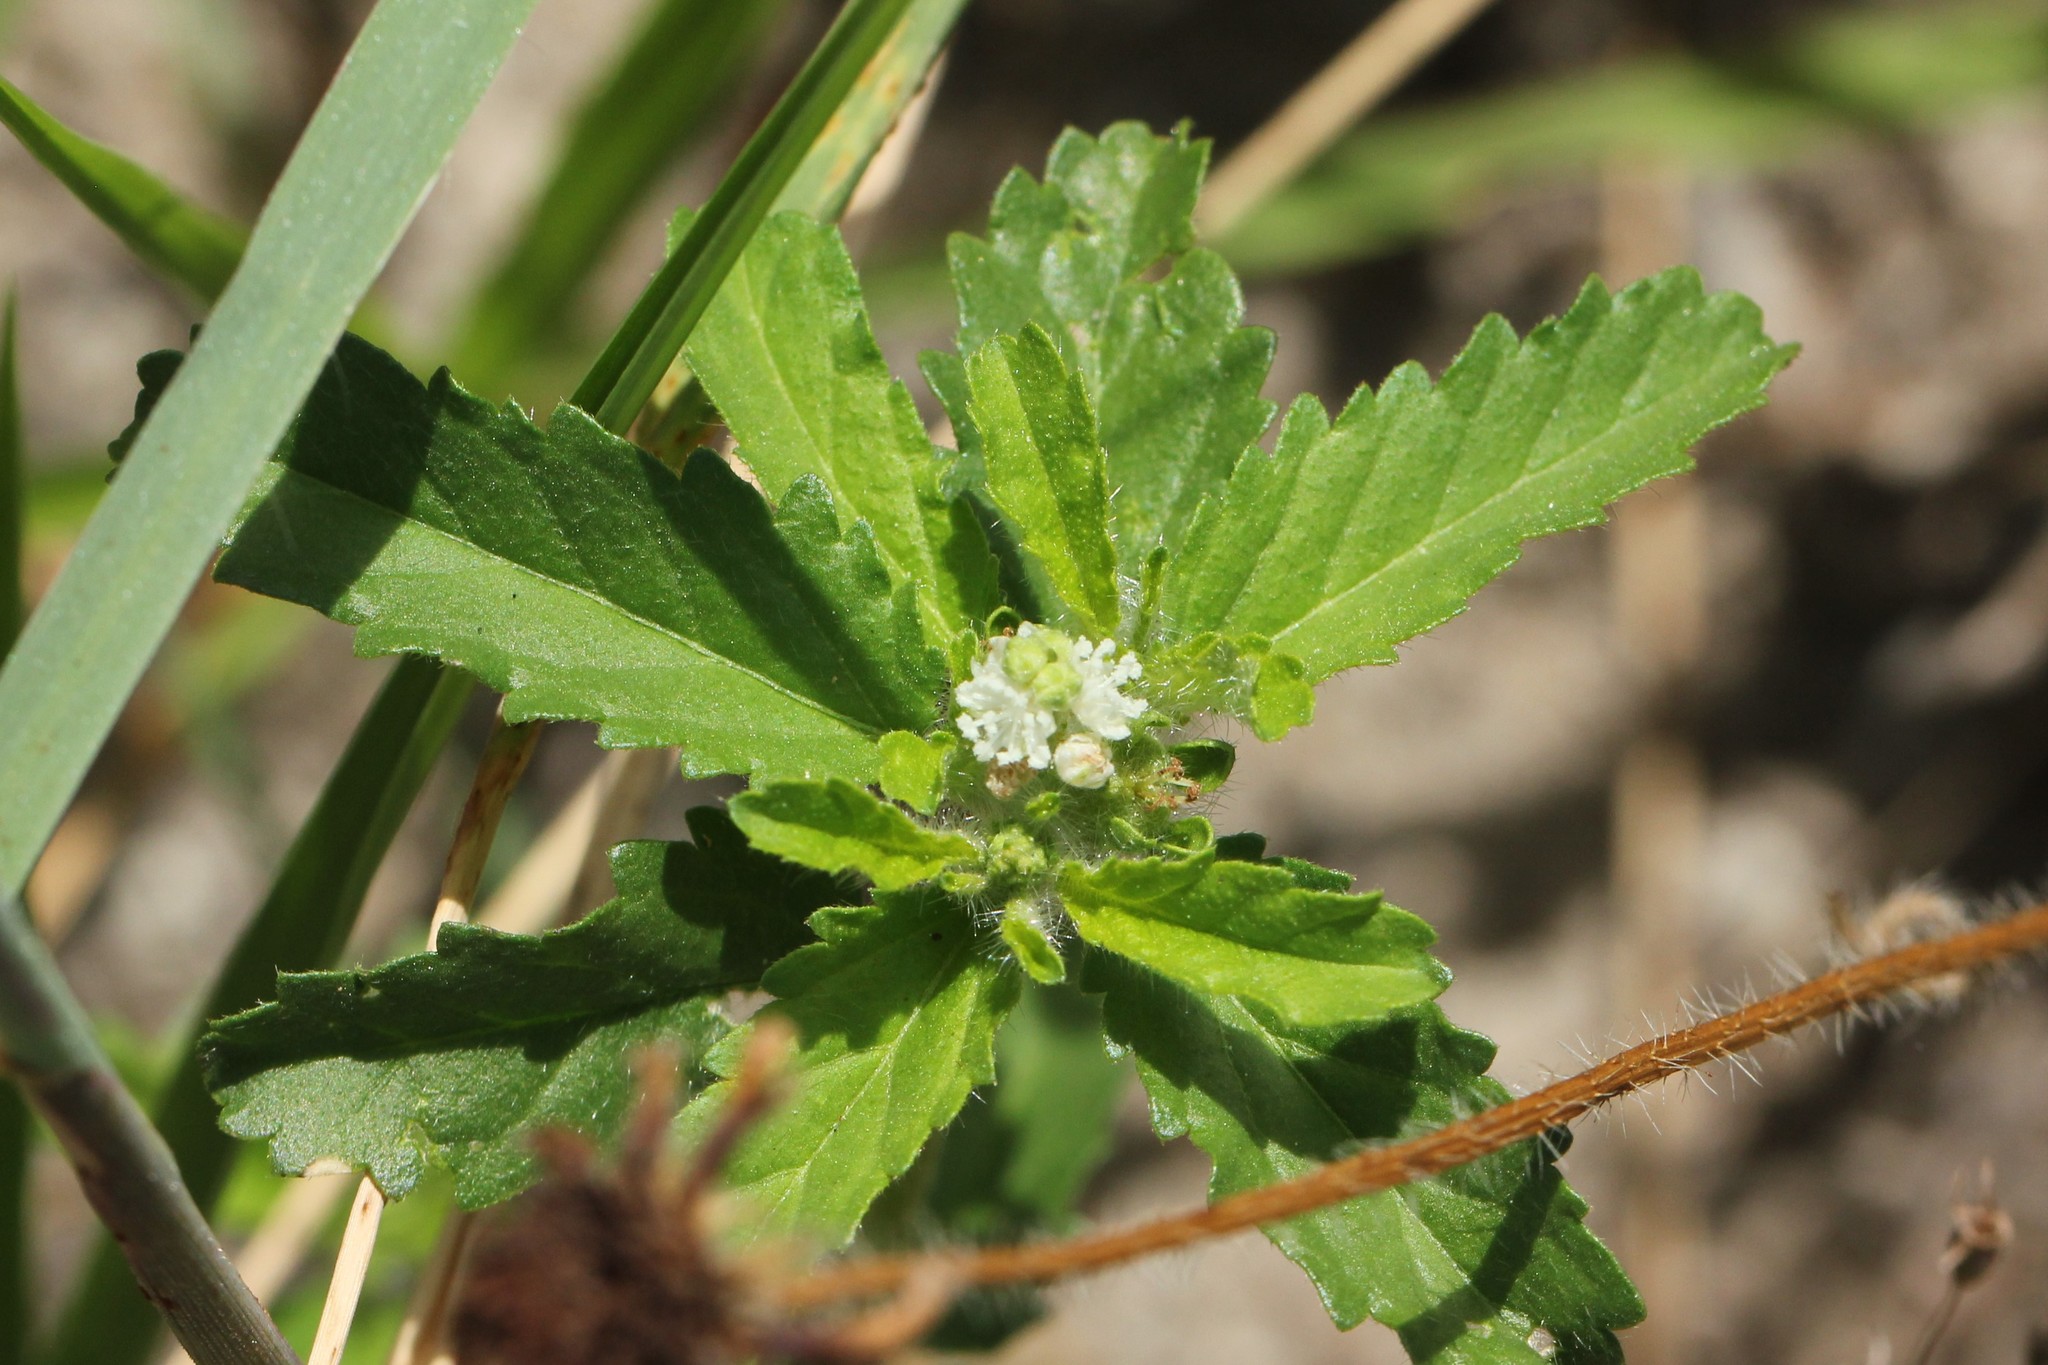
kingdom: Plantae
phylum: Tracheophyta
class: Magnoliopsida
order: Malpighiales
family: Euphorbiaceae
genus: Croton
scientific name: Croton glandulosus
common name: Tropic croton
